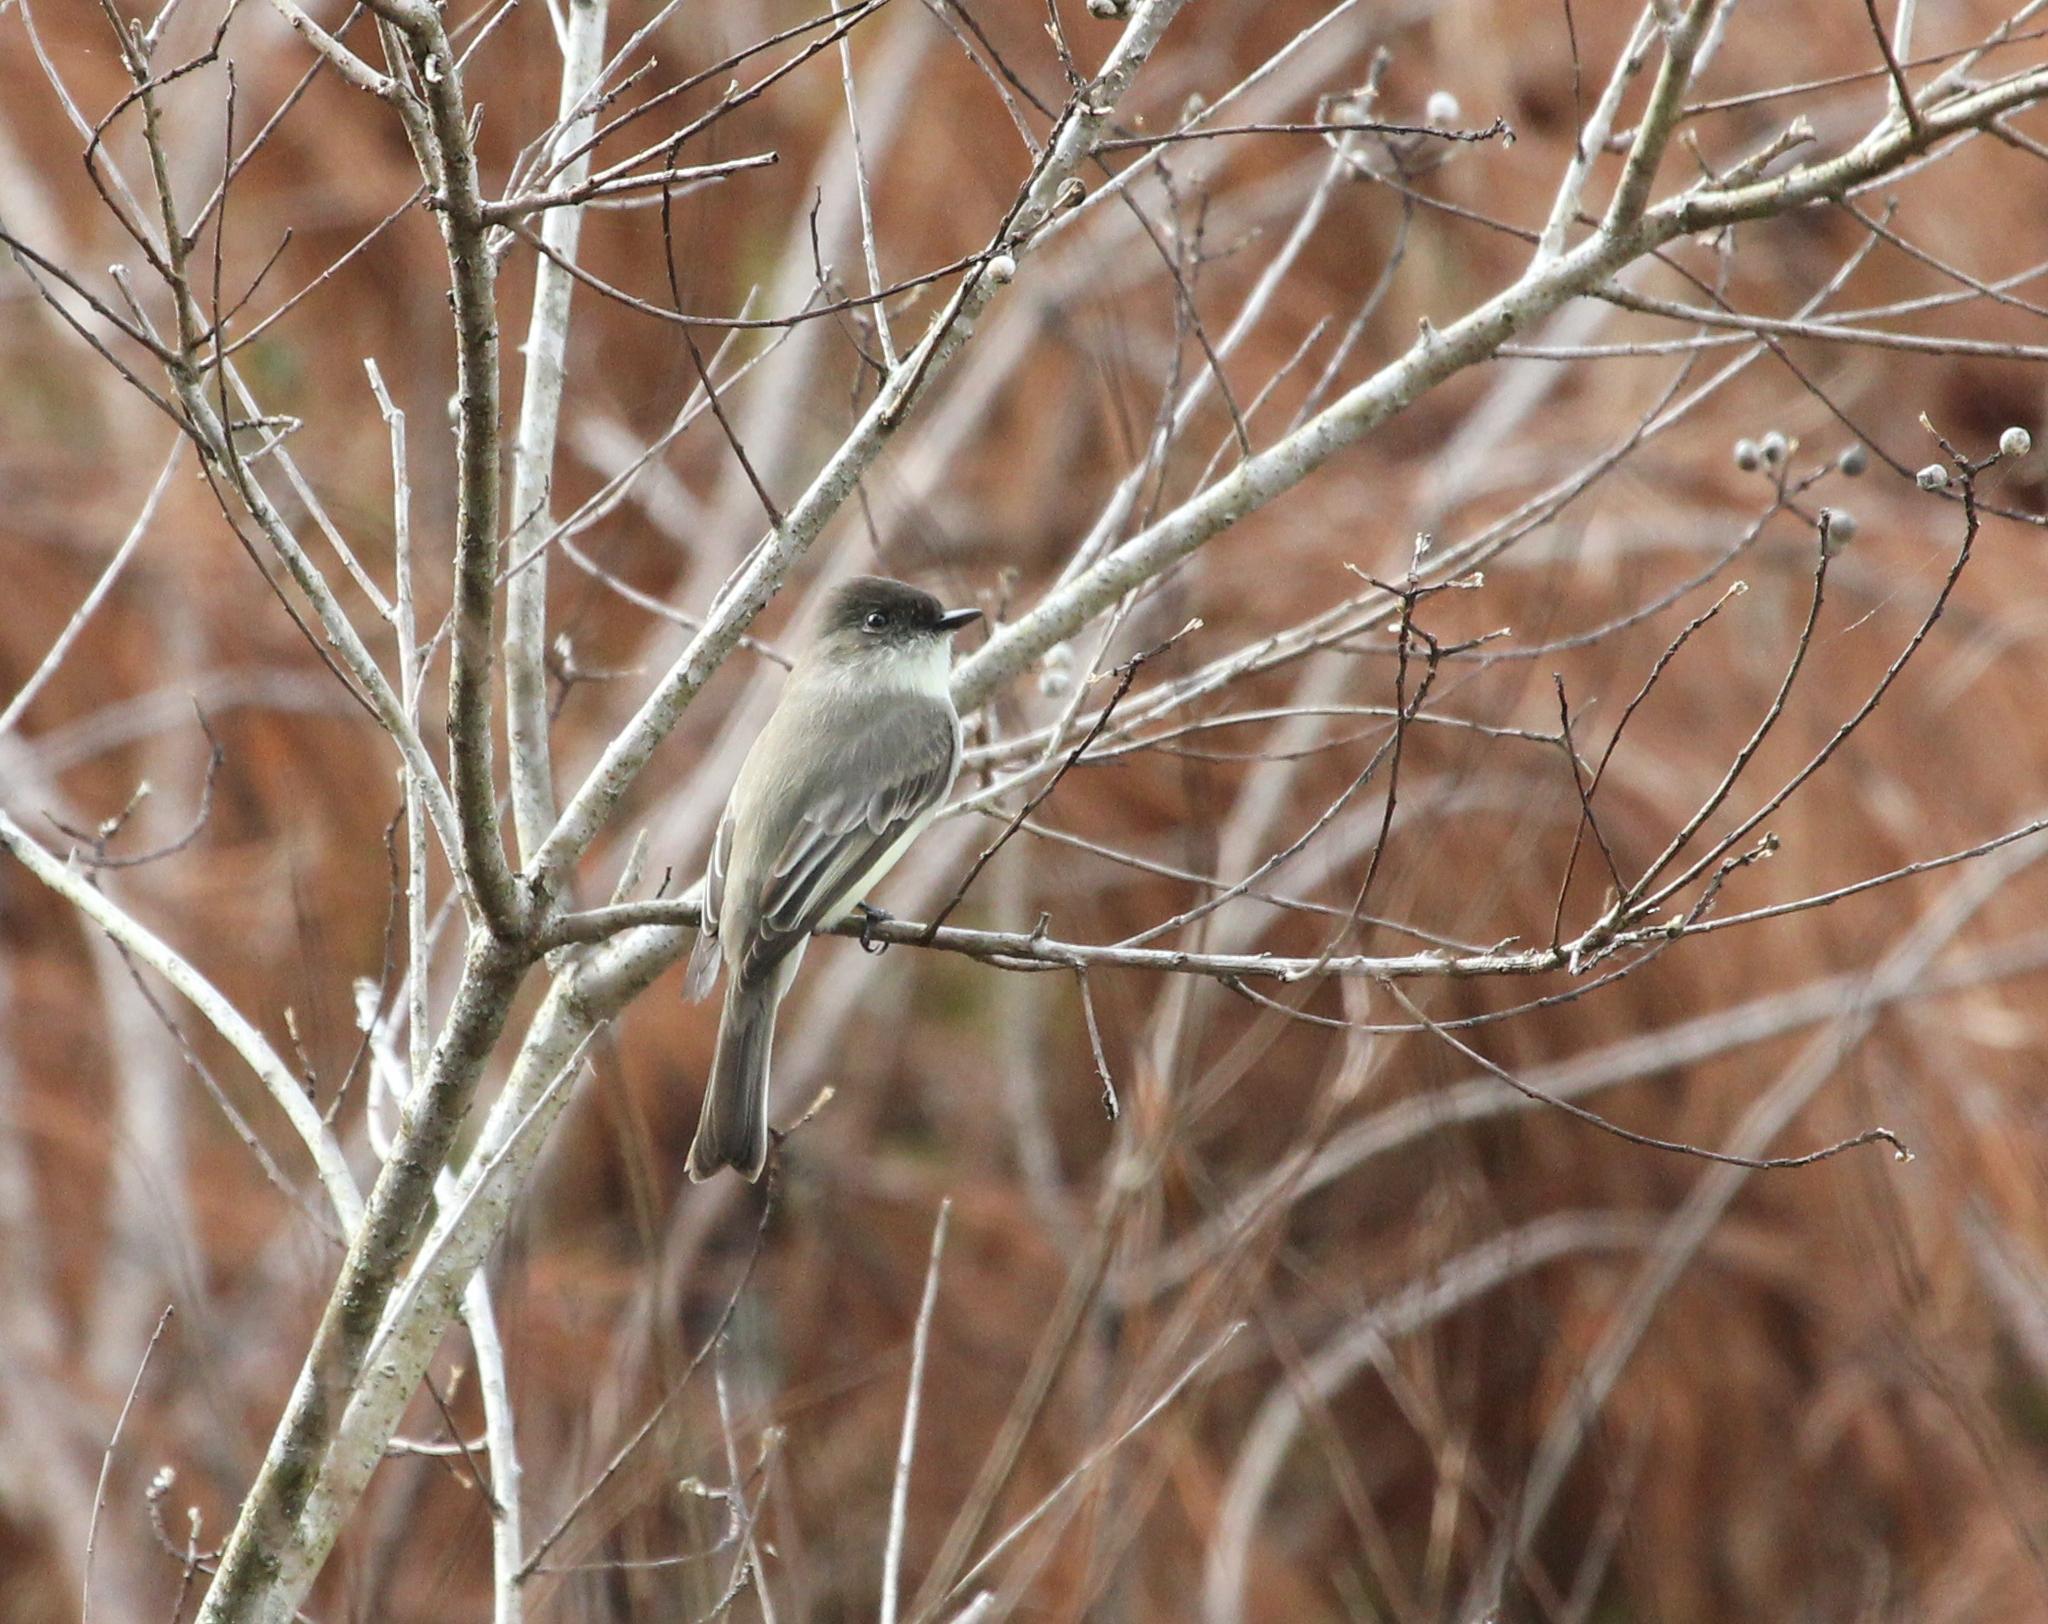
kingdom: Animalia
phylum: Chordata
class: Aves
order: Passeriformes
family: Tyrannidae
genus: Sayornis
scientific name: Sayornis phoebe
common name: Eastern phoebe
